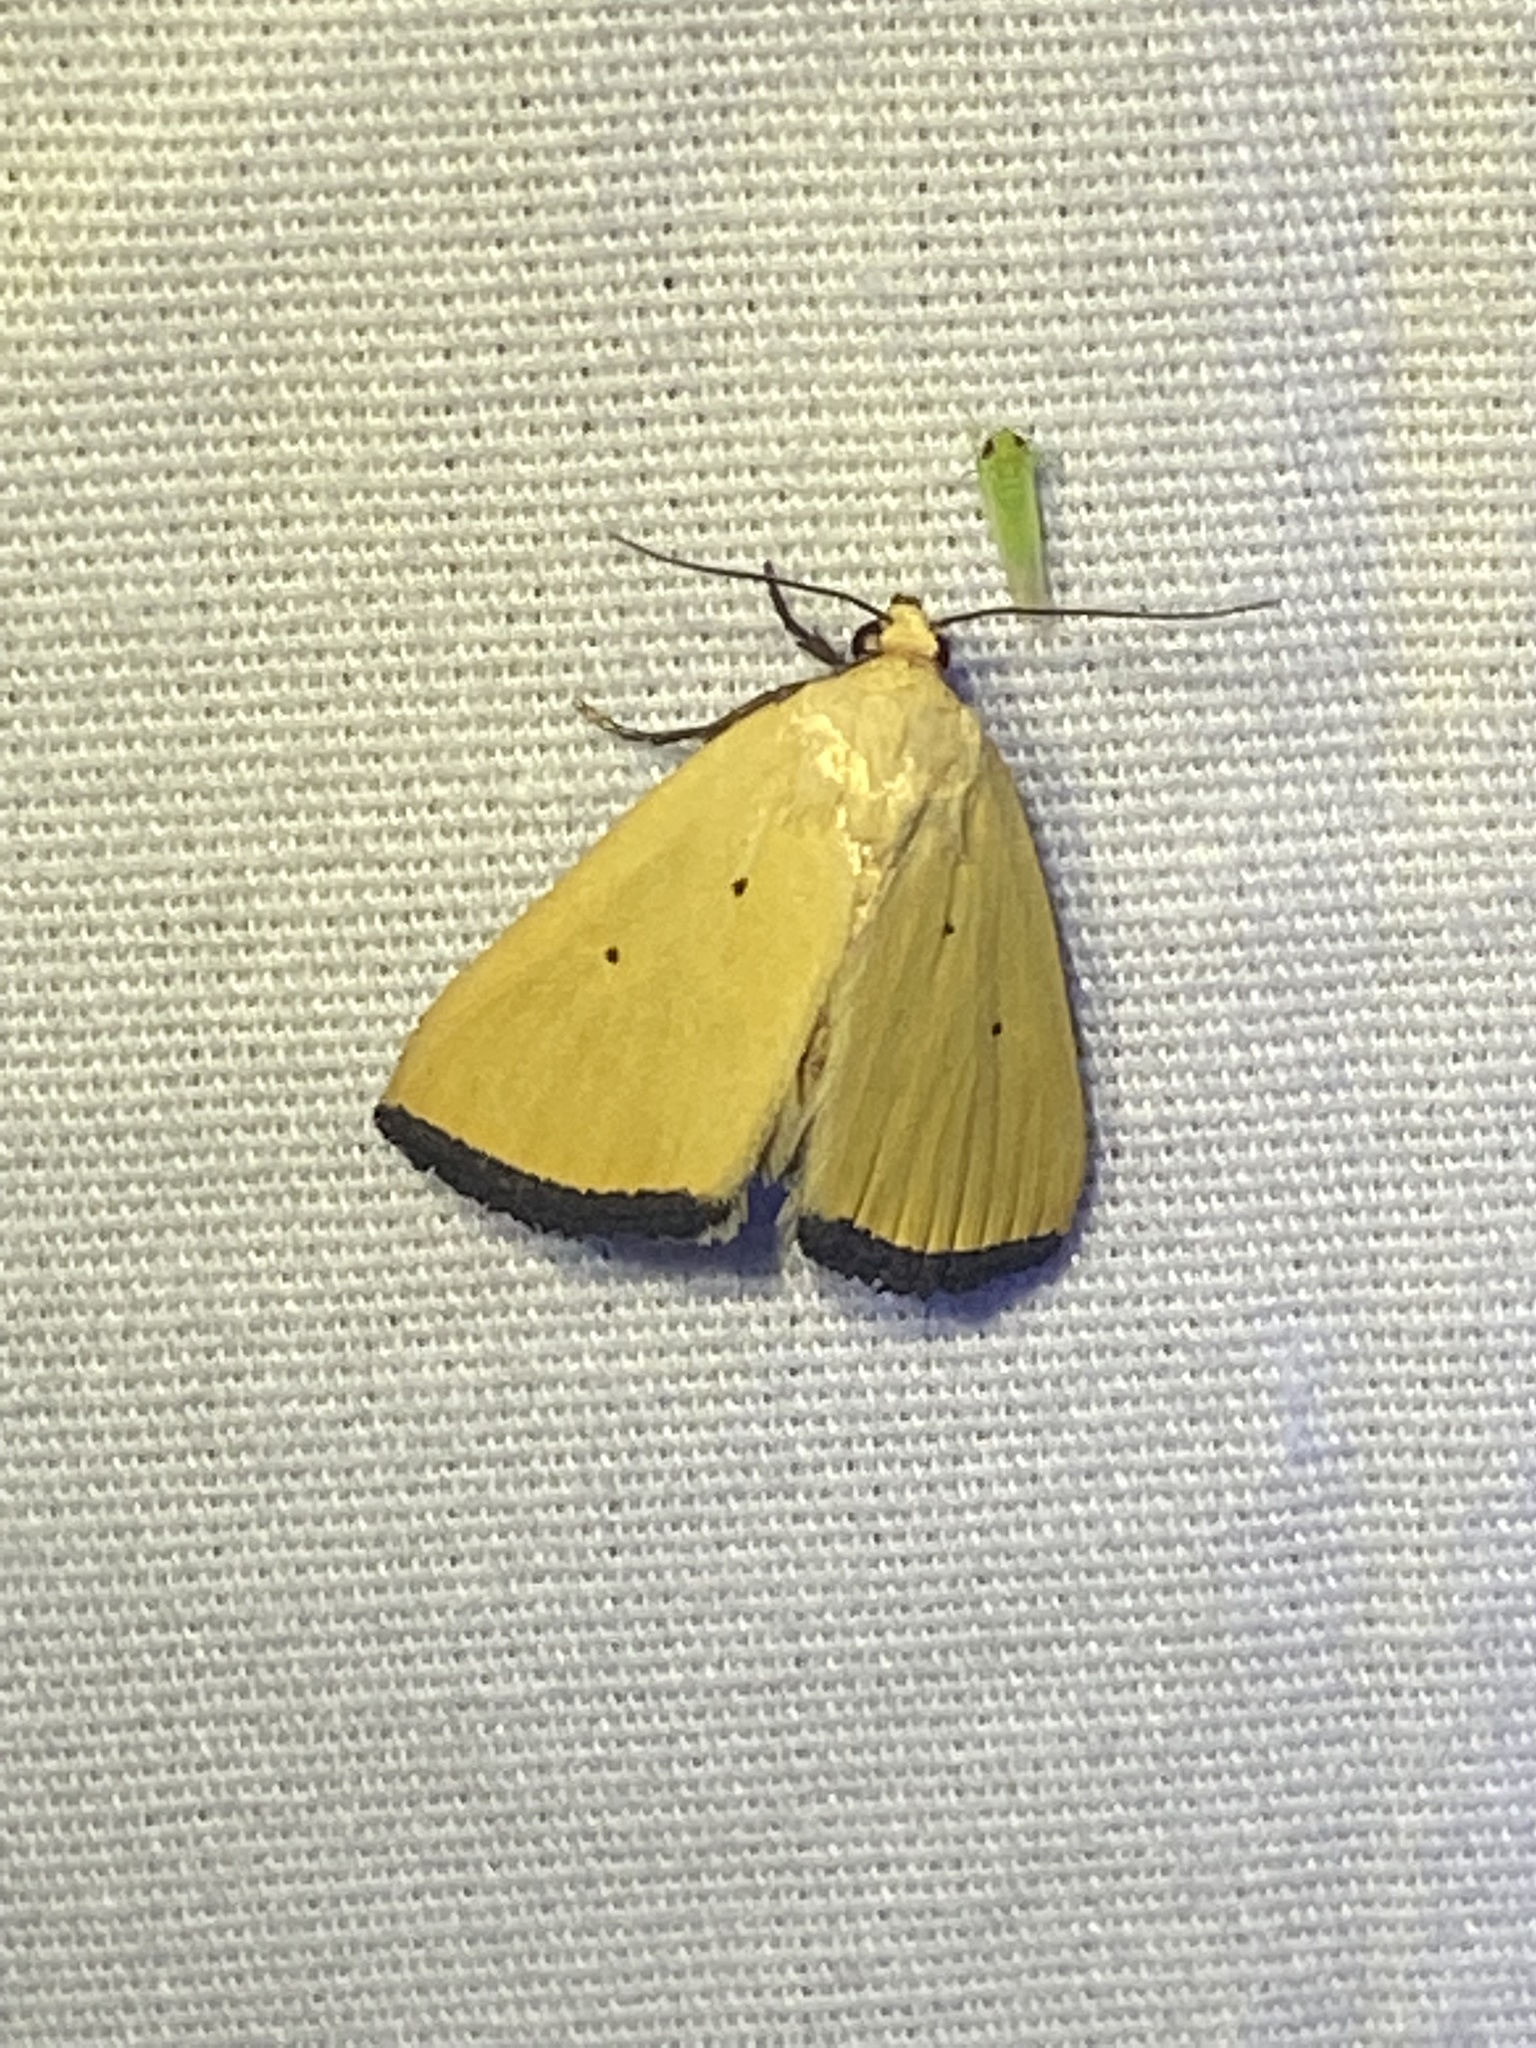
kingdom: Animalia
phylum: Arthropoda
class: Insecta
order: Lepidoptera
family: Noctuidae
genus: Marimatha
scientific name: Marimatha nigrofimbria
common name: Black-bordered lemon moth
